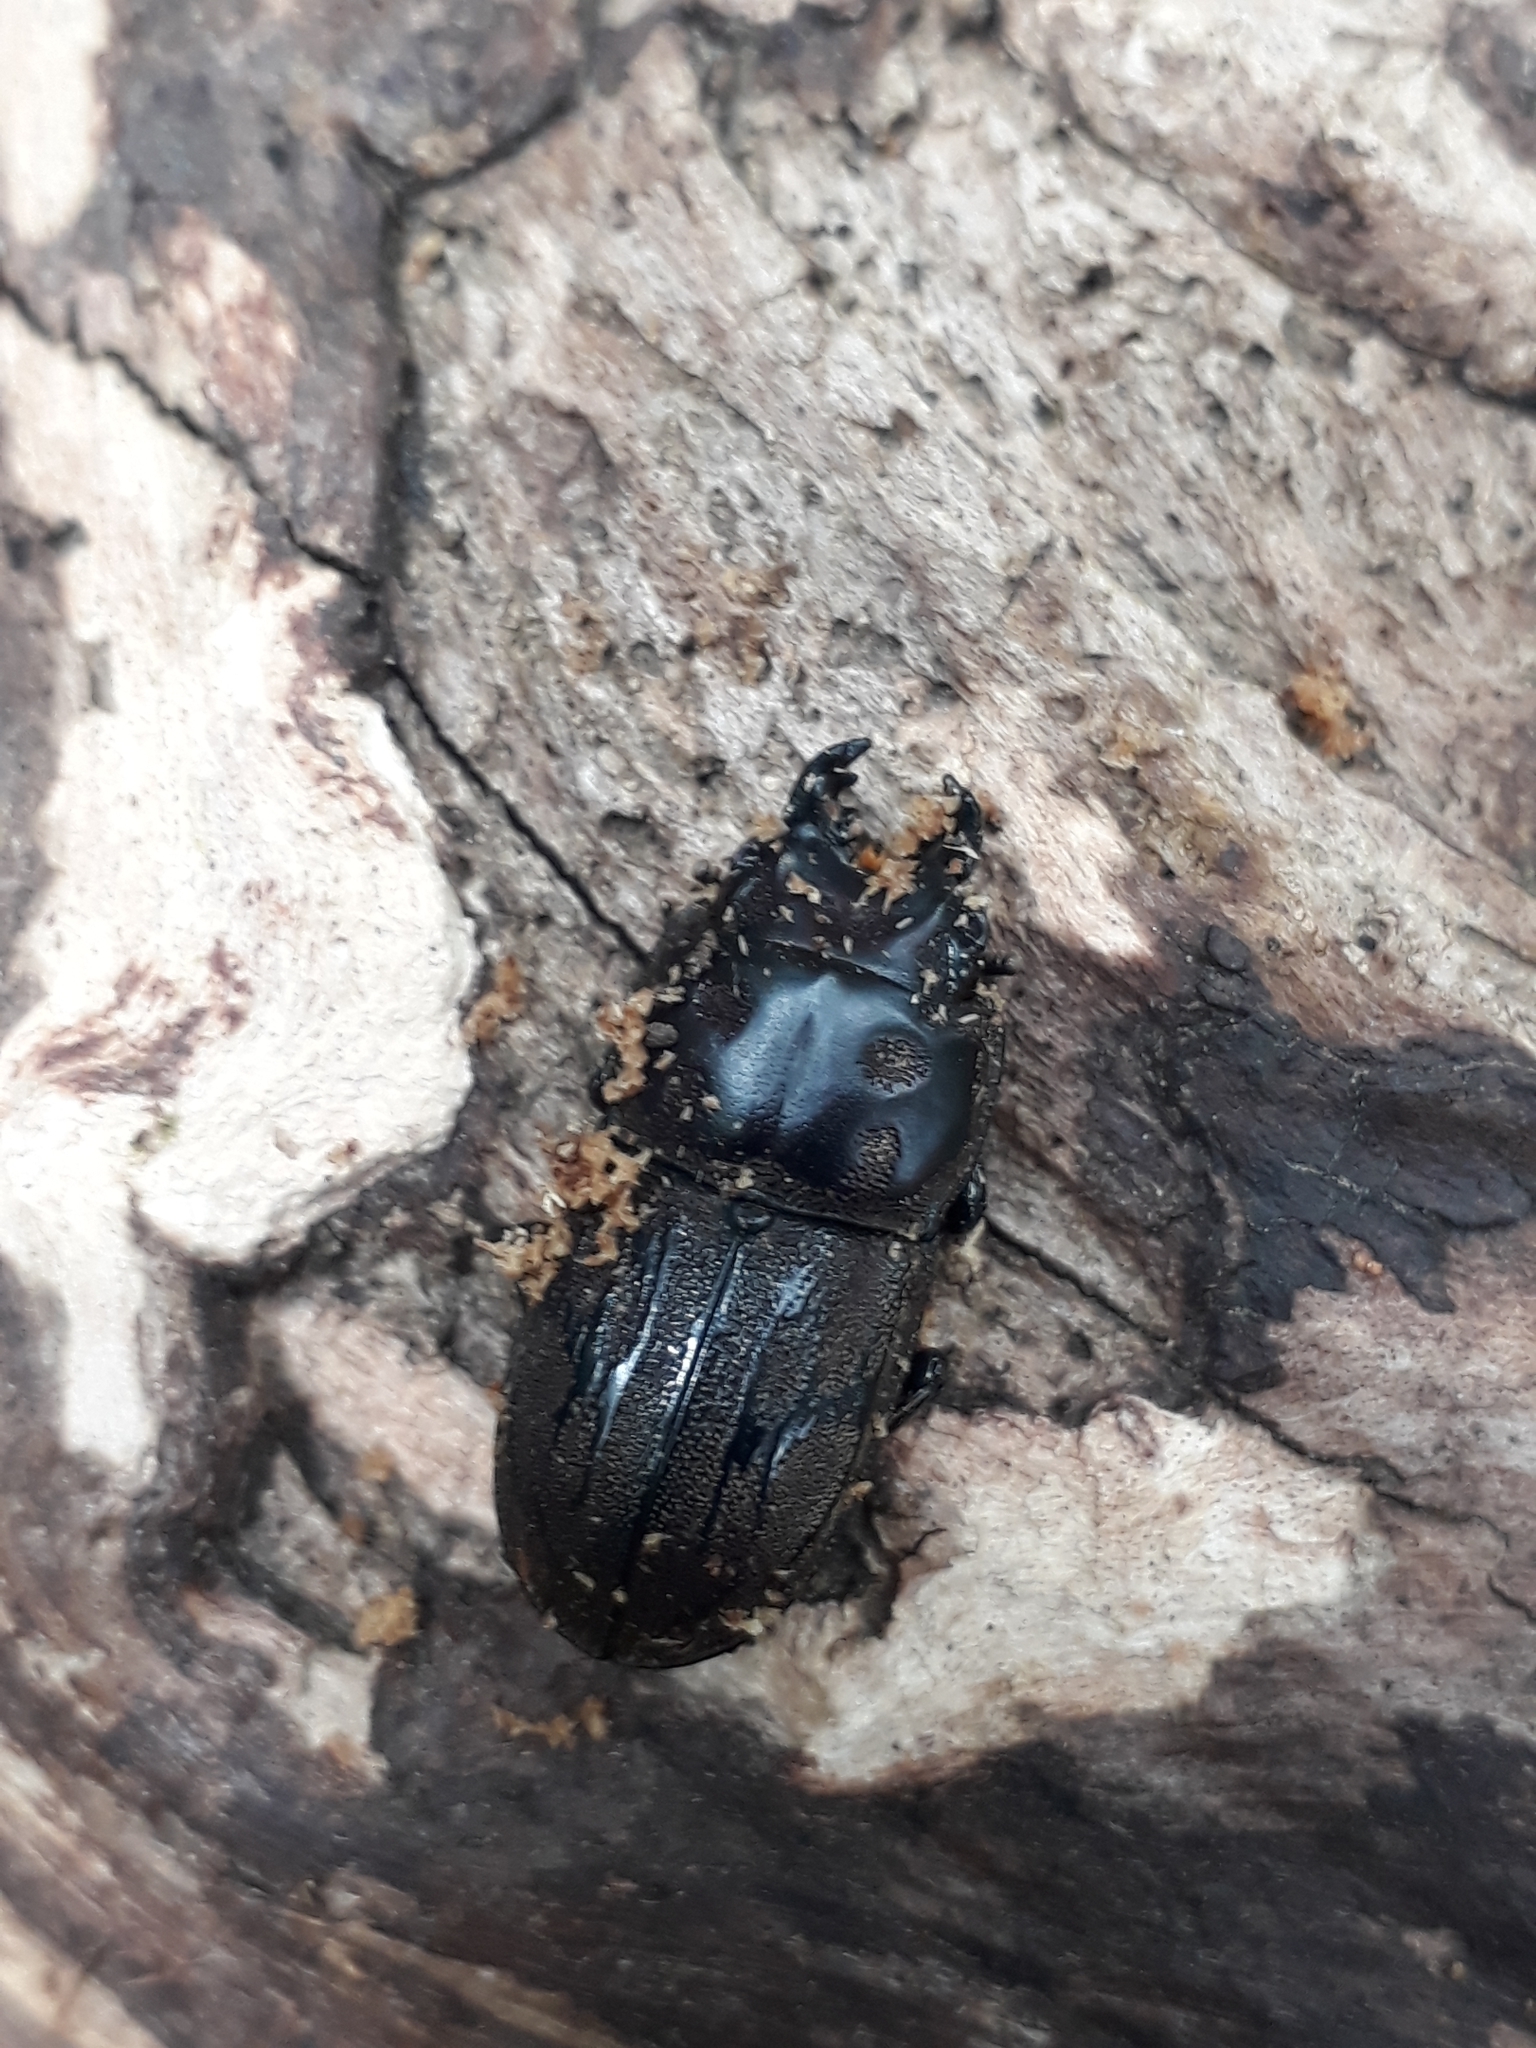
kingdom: Animalia
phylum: Arthropoda
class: Insecta
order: Coleoptera
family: Lucanidae
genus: Paralissotes
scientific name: Paralissotes reticulatus
